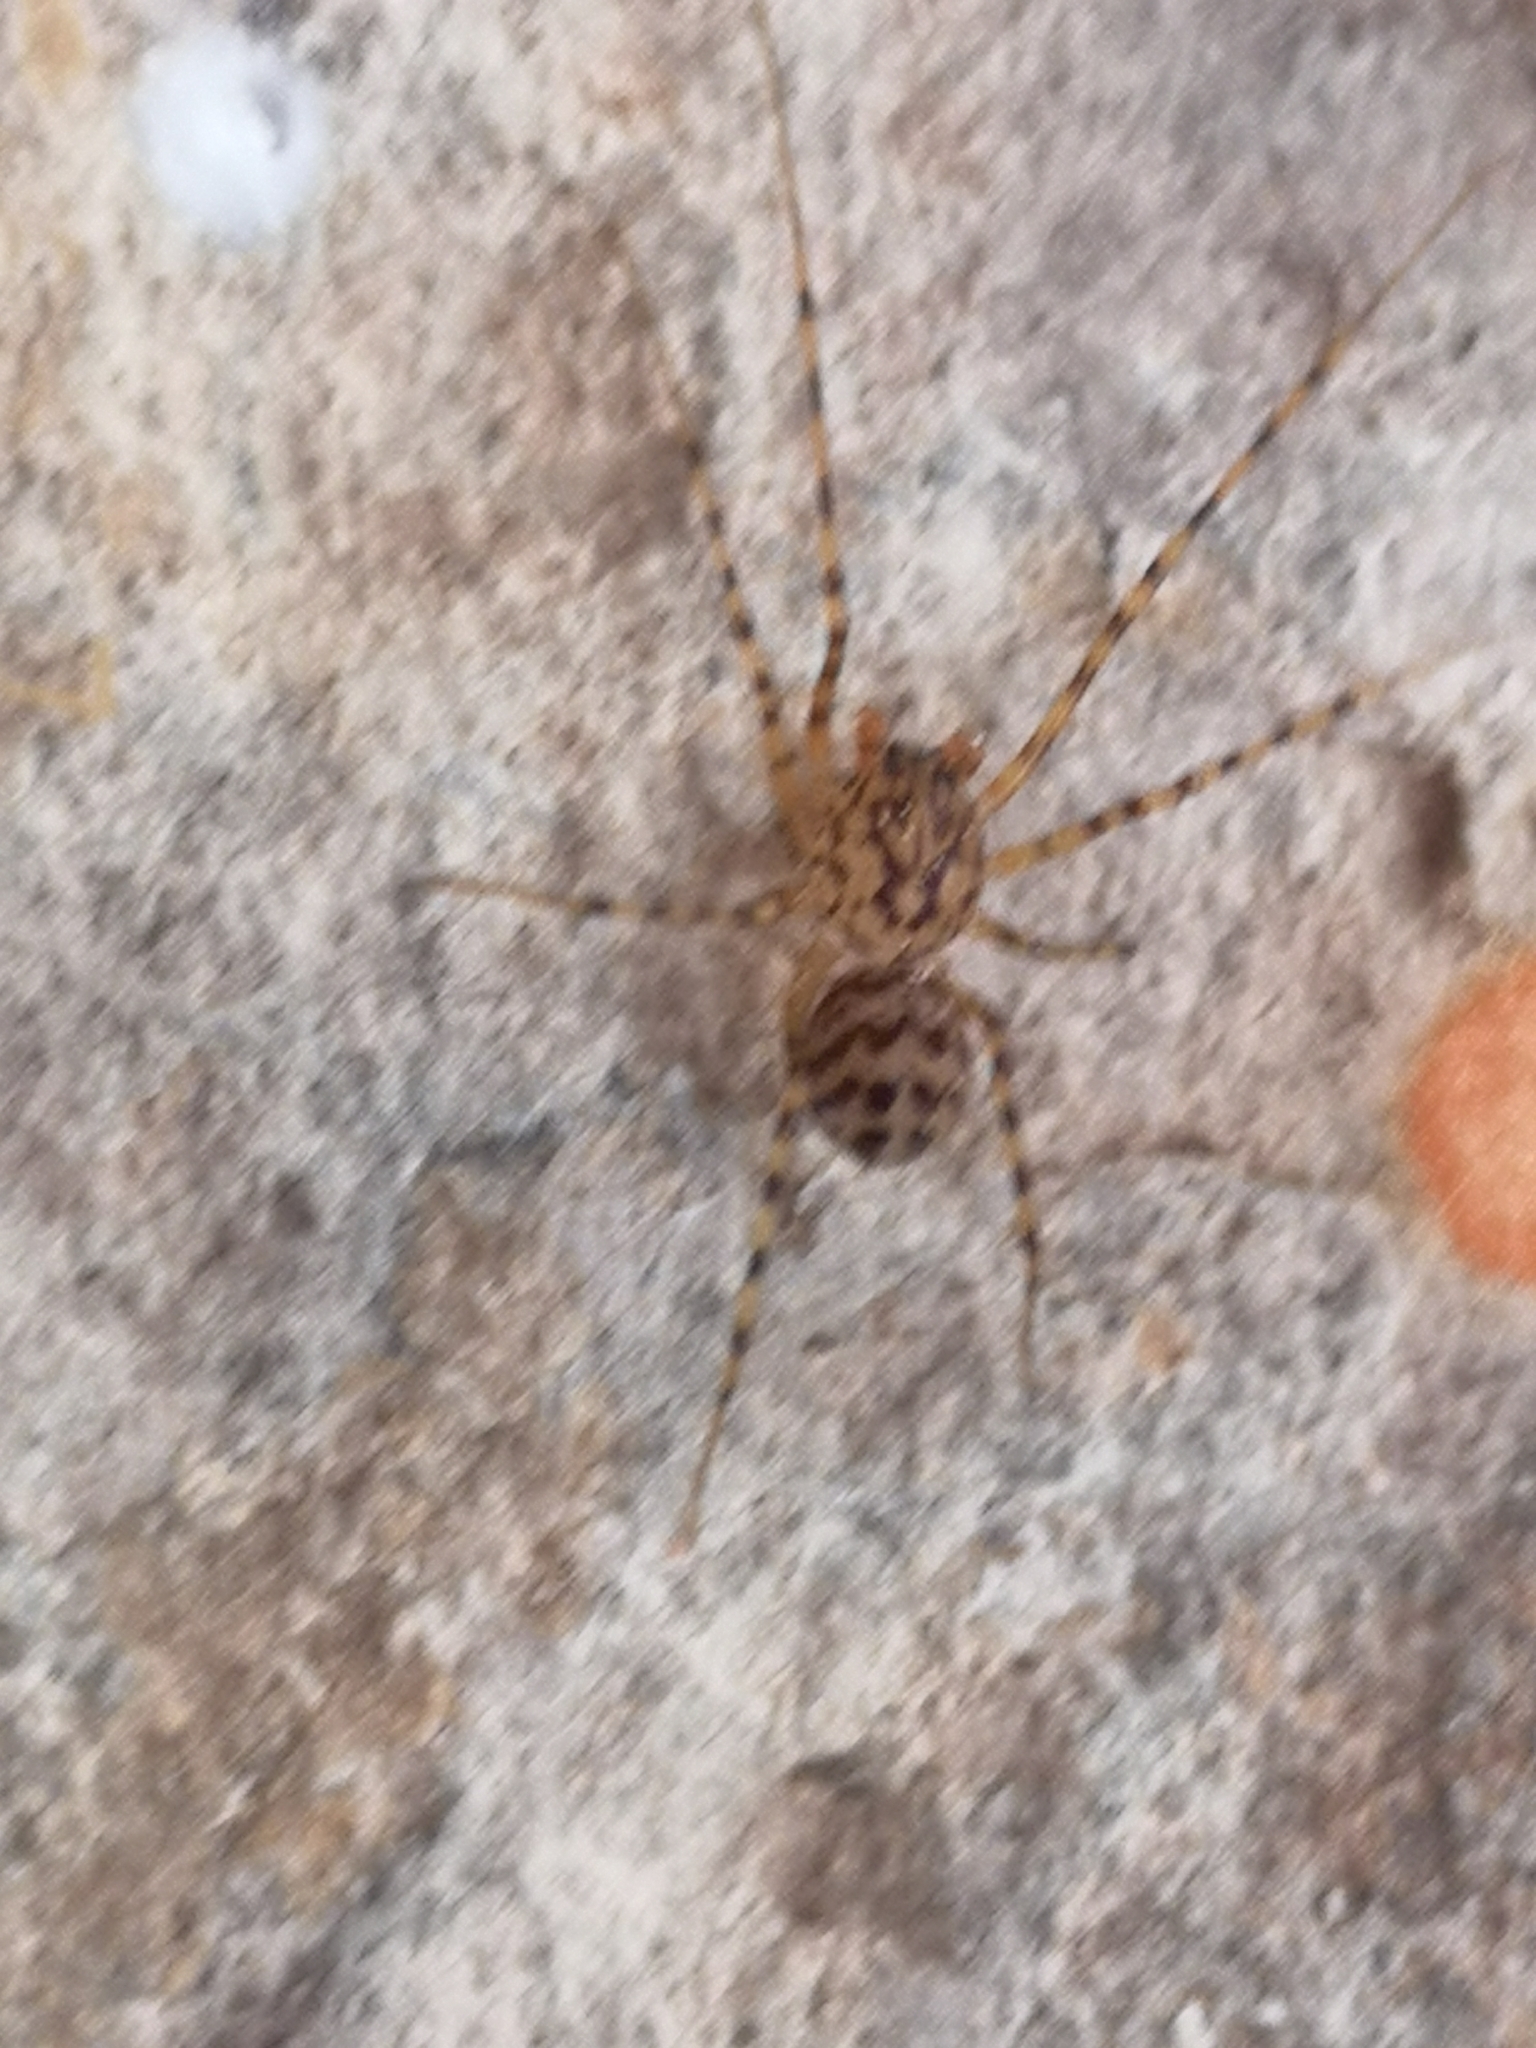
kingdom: Animalia
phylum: Arthropoda
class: Arachnida
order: Araneae
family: Scytodidae
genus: Scytodes
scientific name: Scytodes thoracica
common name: Spitting spider
